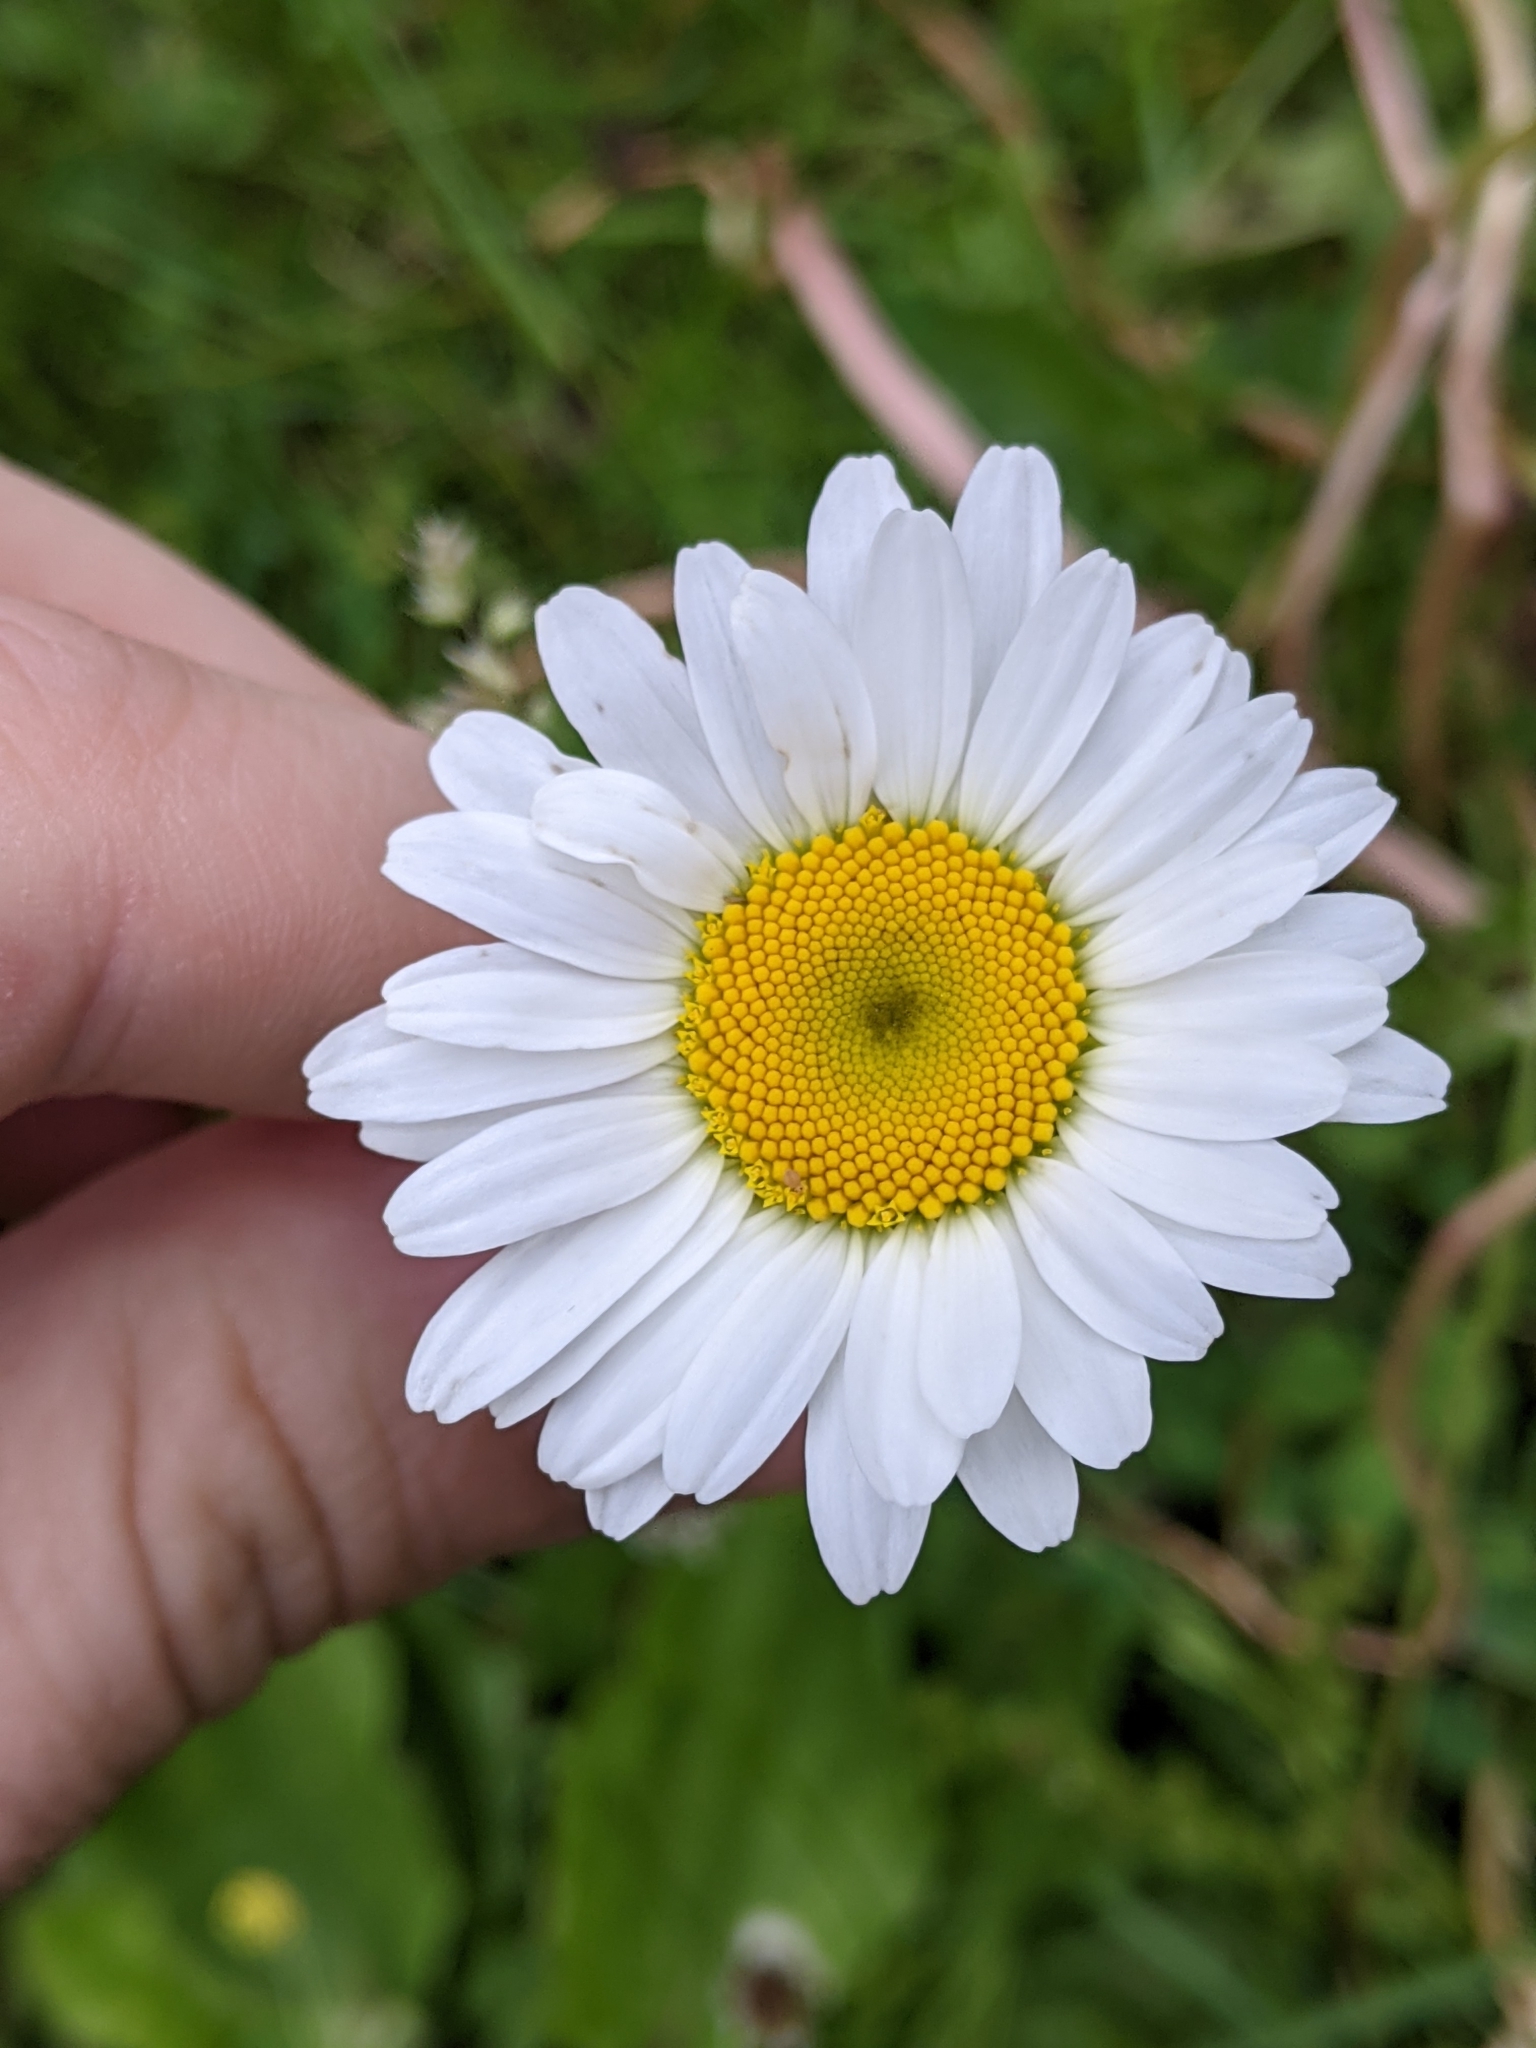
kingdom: Plantae
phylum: Tracheophyta
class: Magnoliopsida
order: Asterales
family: Asteraceae
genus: Leucanthemum
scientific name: Leucanthemum vulgare
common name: Oxeye daisy
